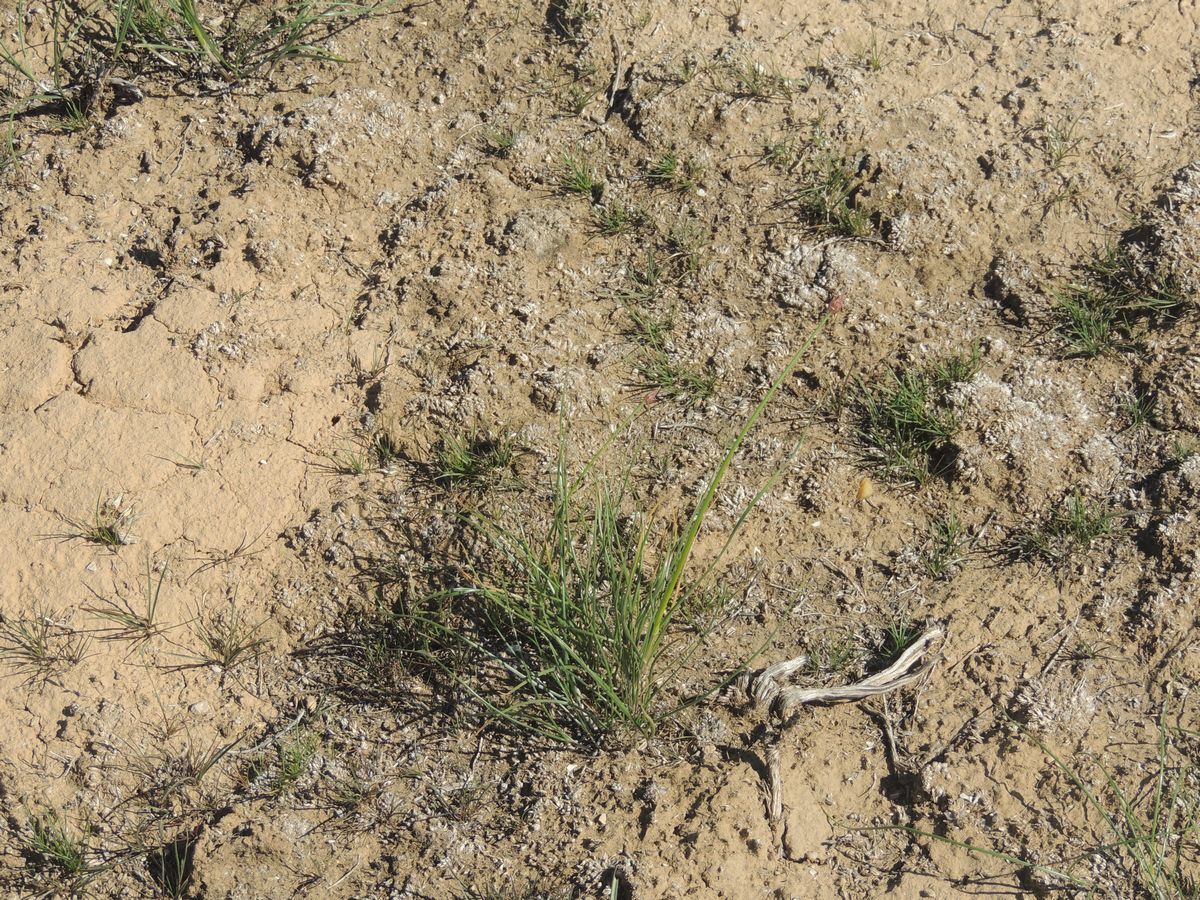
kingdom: Plantae
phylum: Tracheophyta
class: Liliopsida
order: Asparagales
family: Amaryllidaceae
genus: Allium
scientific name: Allium inderiense
